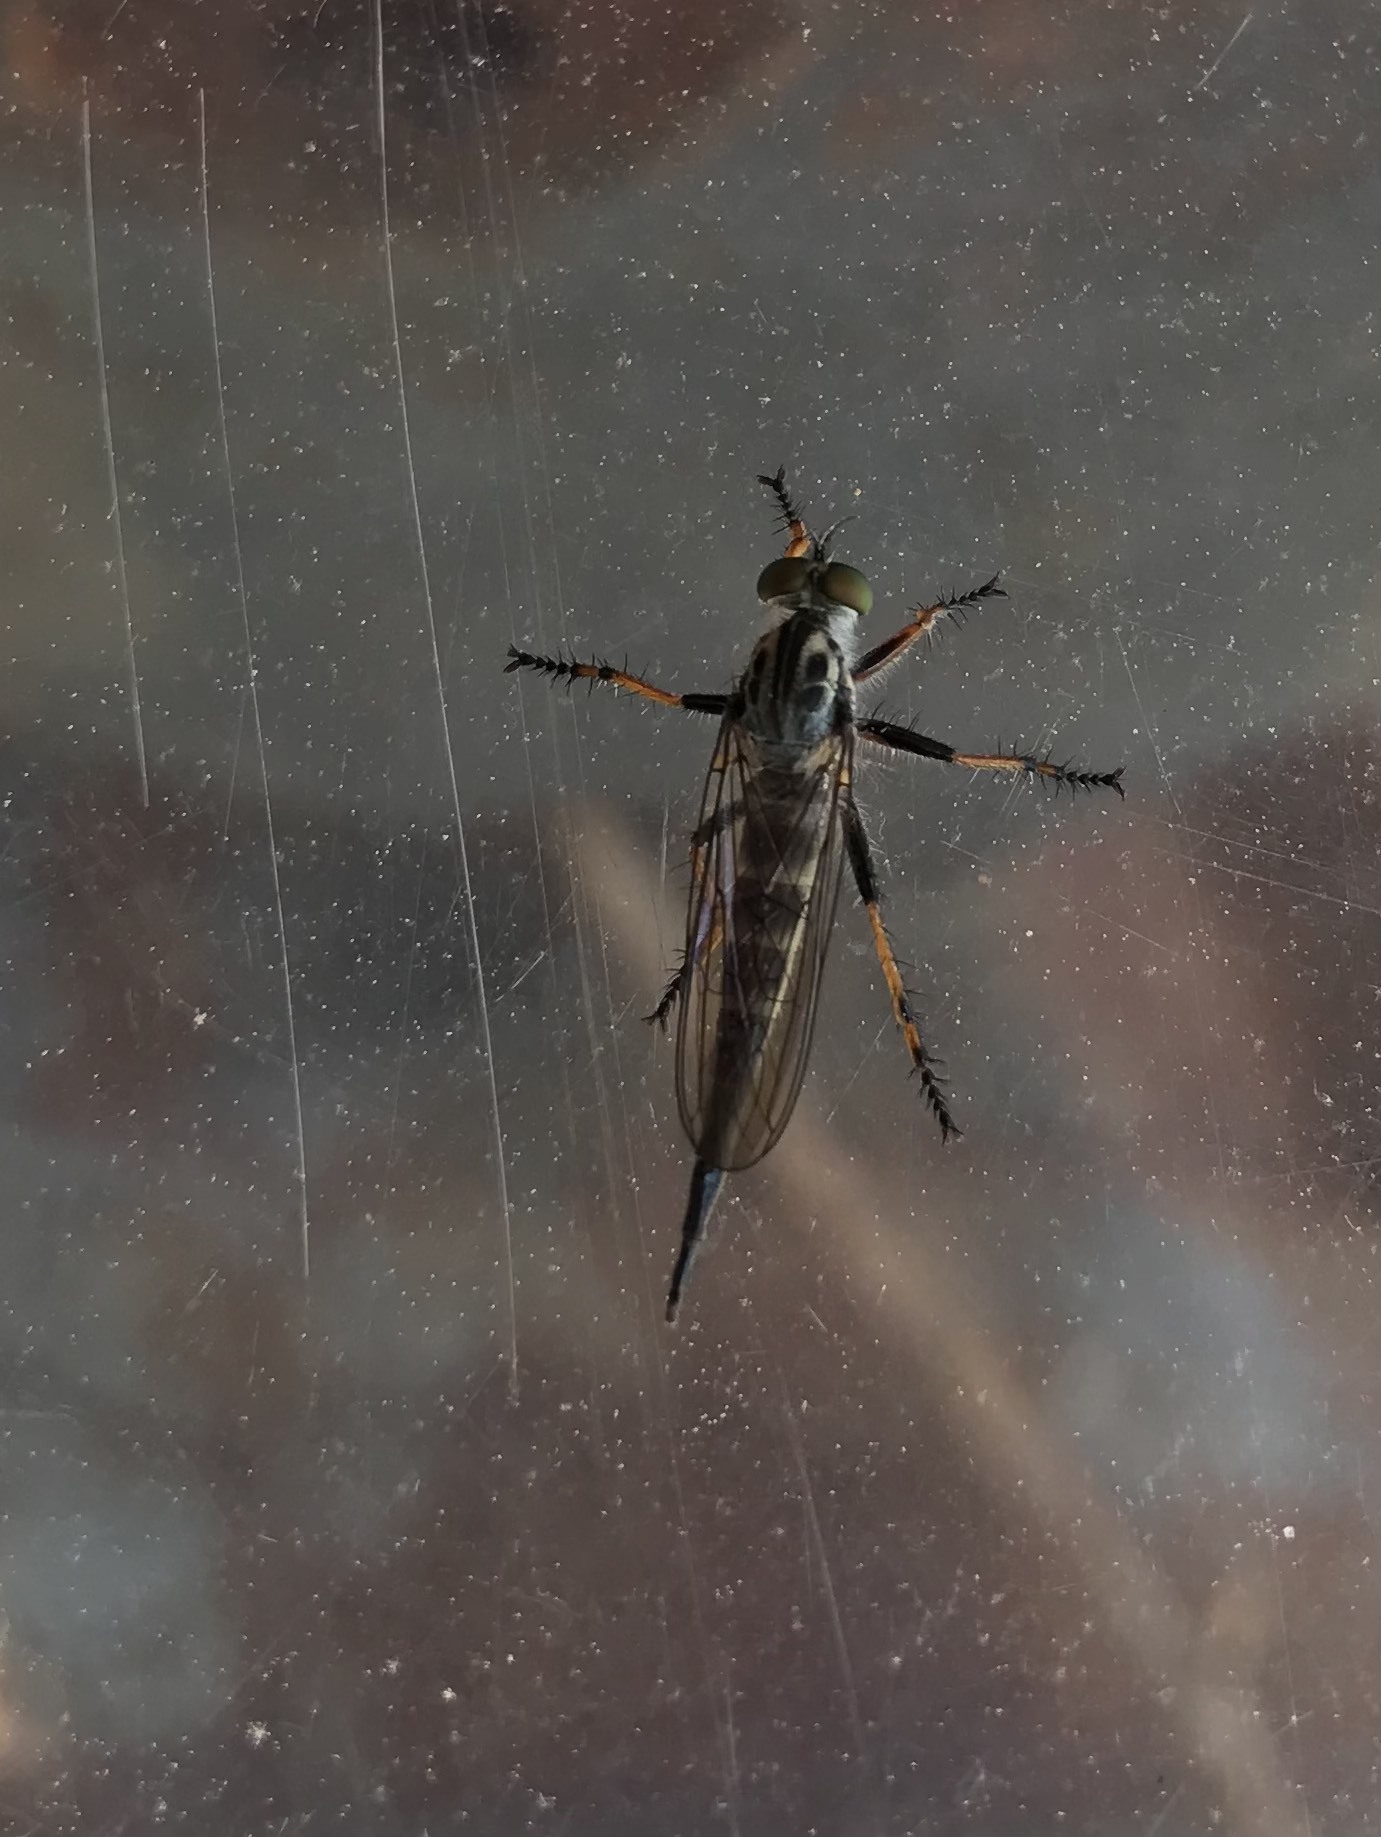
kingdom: Animalia
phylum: Arthropoda
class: Insecta
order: Diptera
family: Asilidae
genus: Asilus
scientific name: Asilus flavofemoratus
